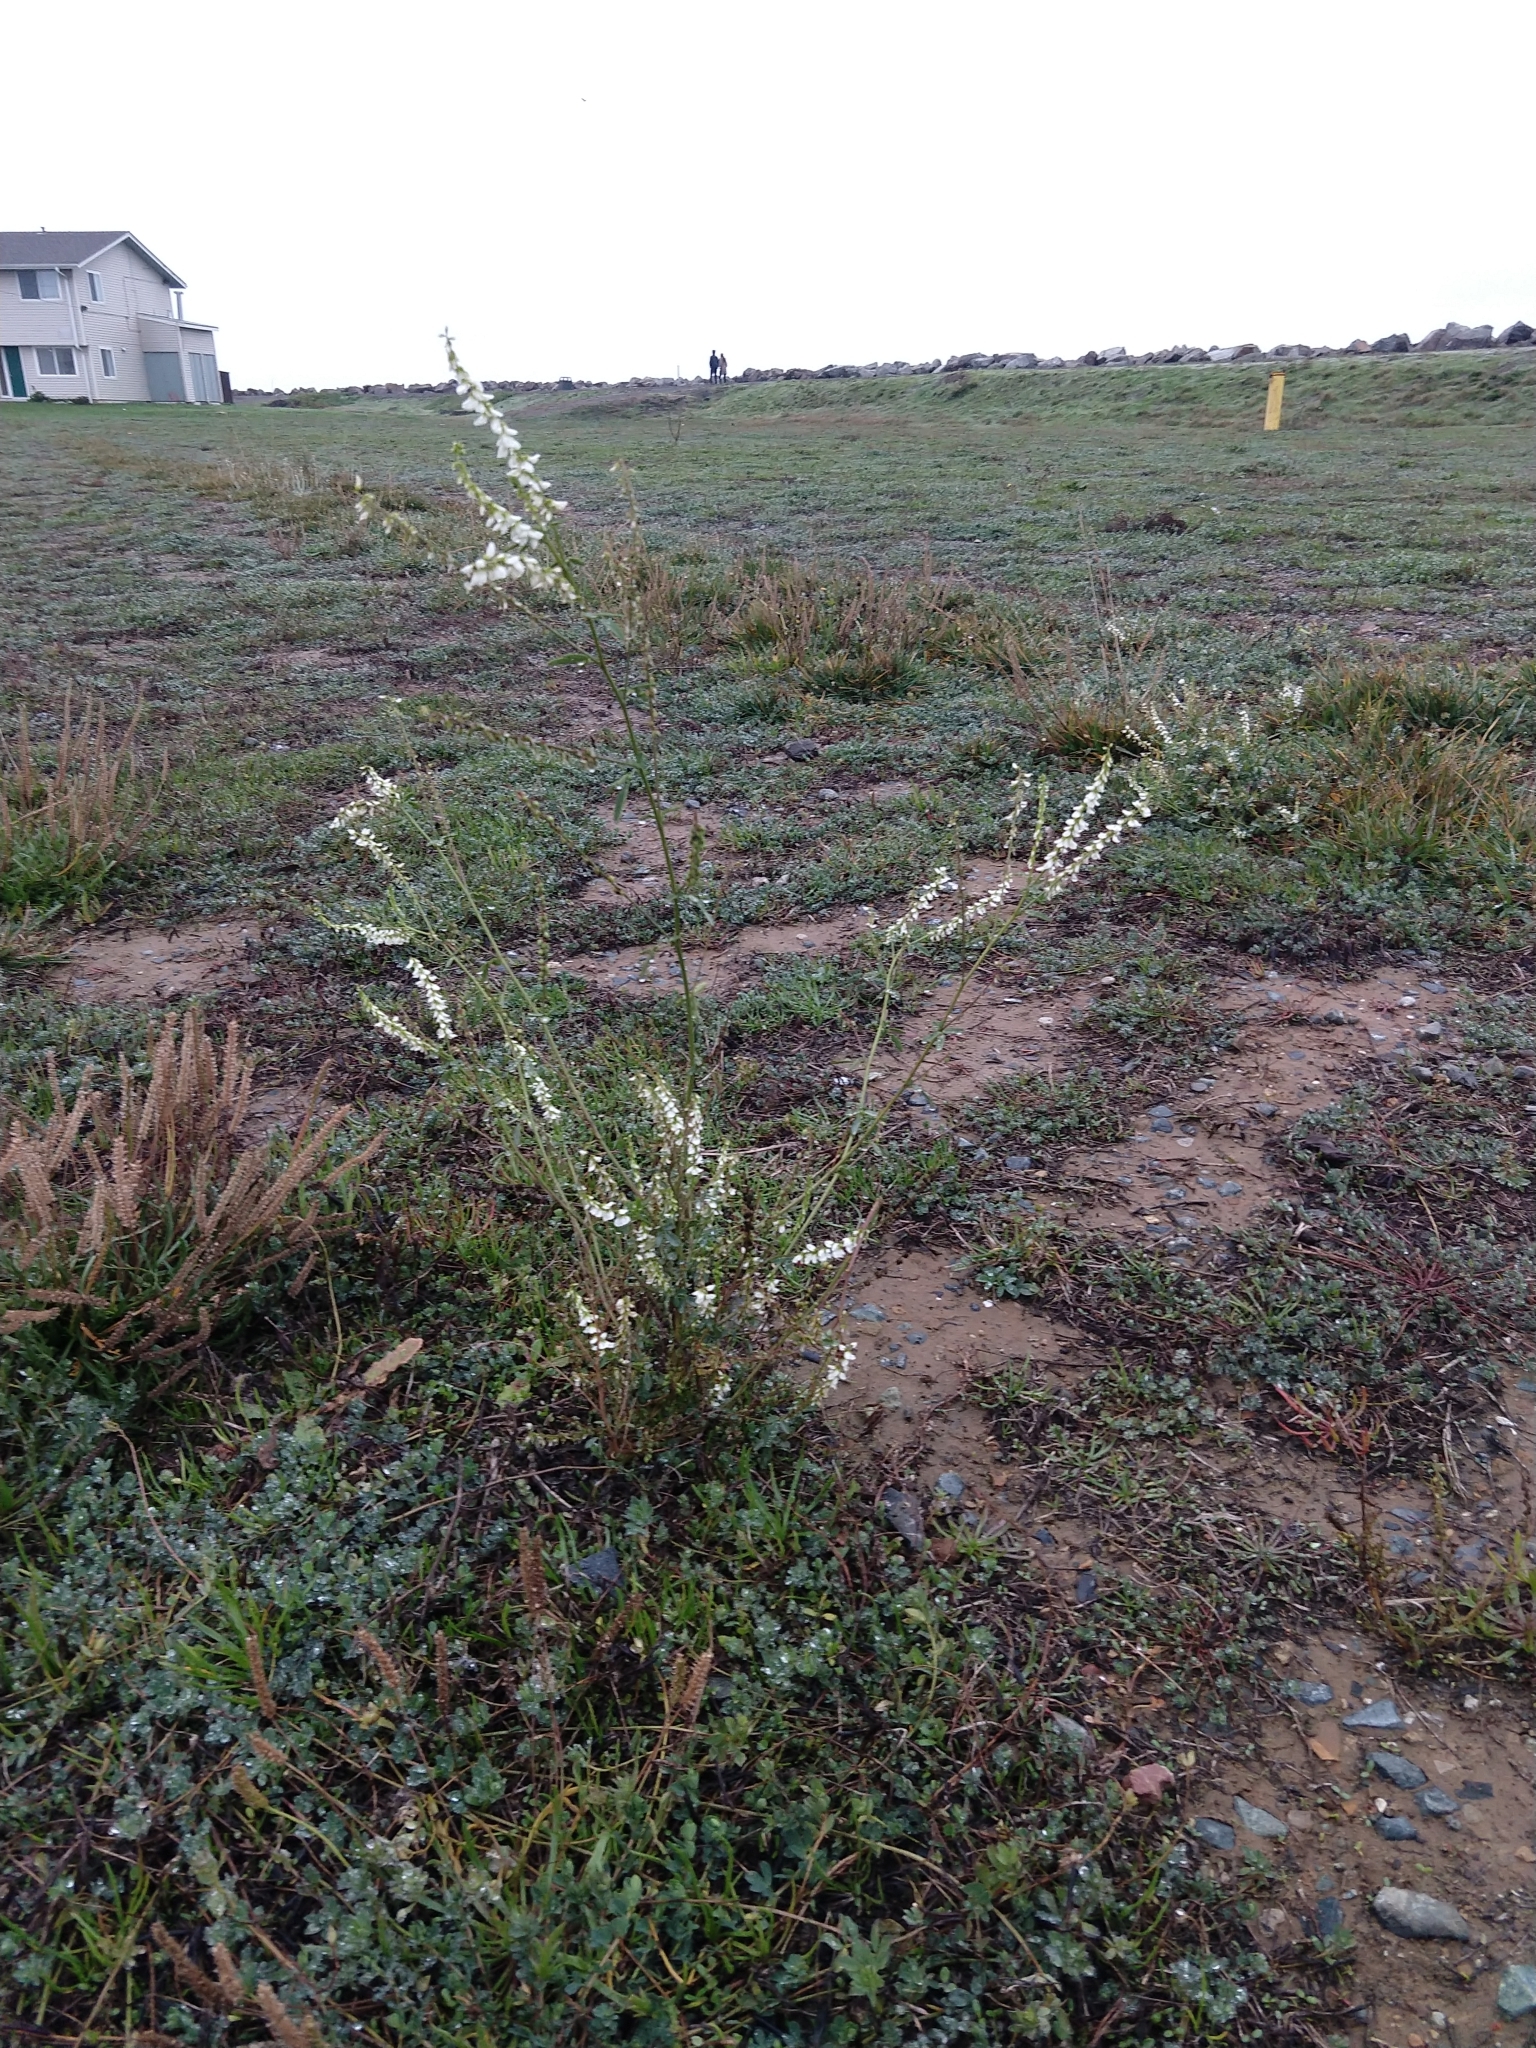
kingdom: Plantae
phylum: Tracheophyta
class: Magnoliopsida
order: Fabales
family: Fabaceae
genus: Melilotus
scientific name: Melilotus albus
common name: White melilot
